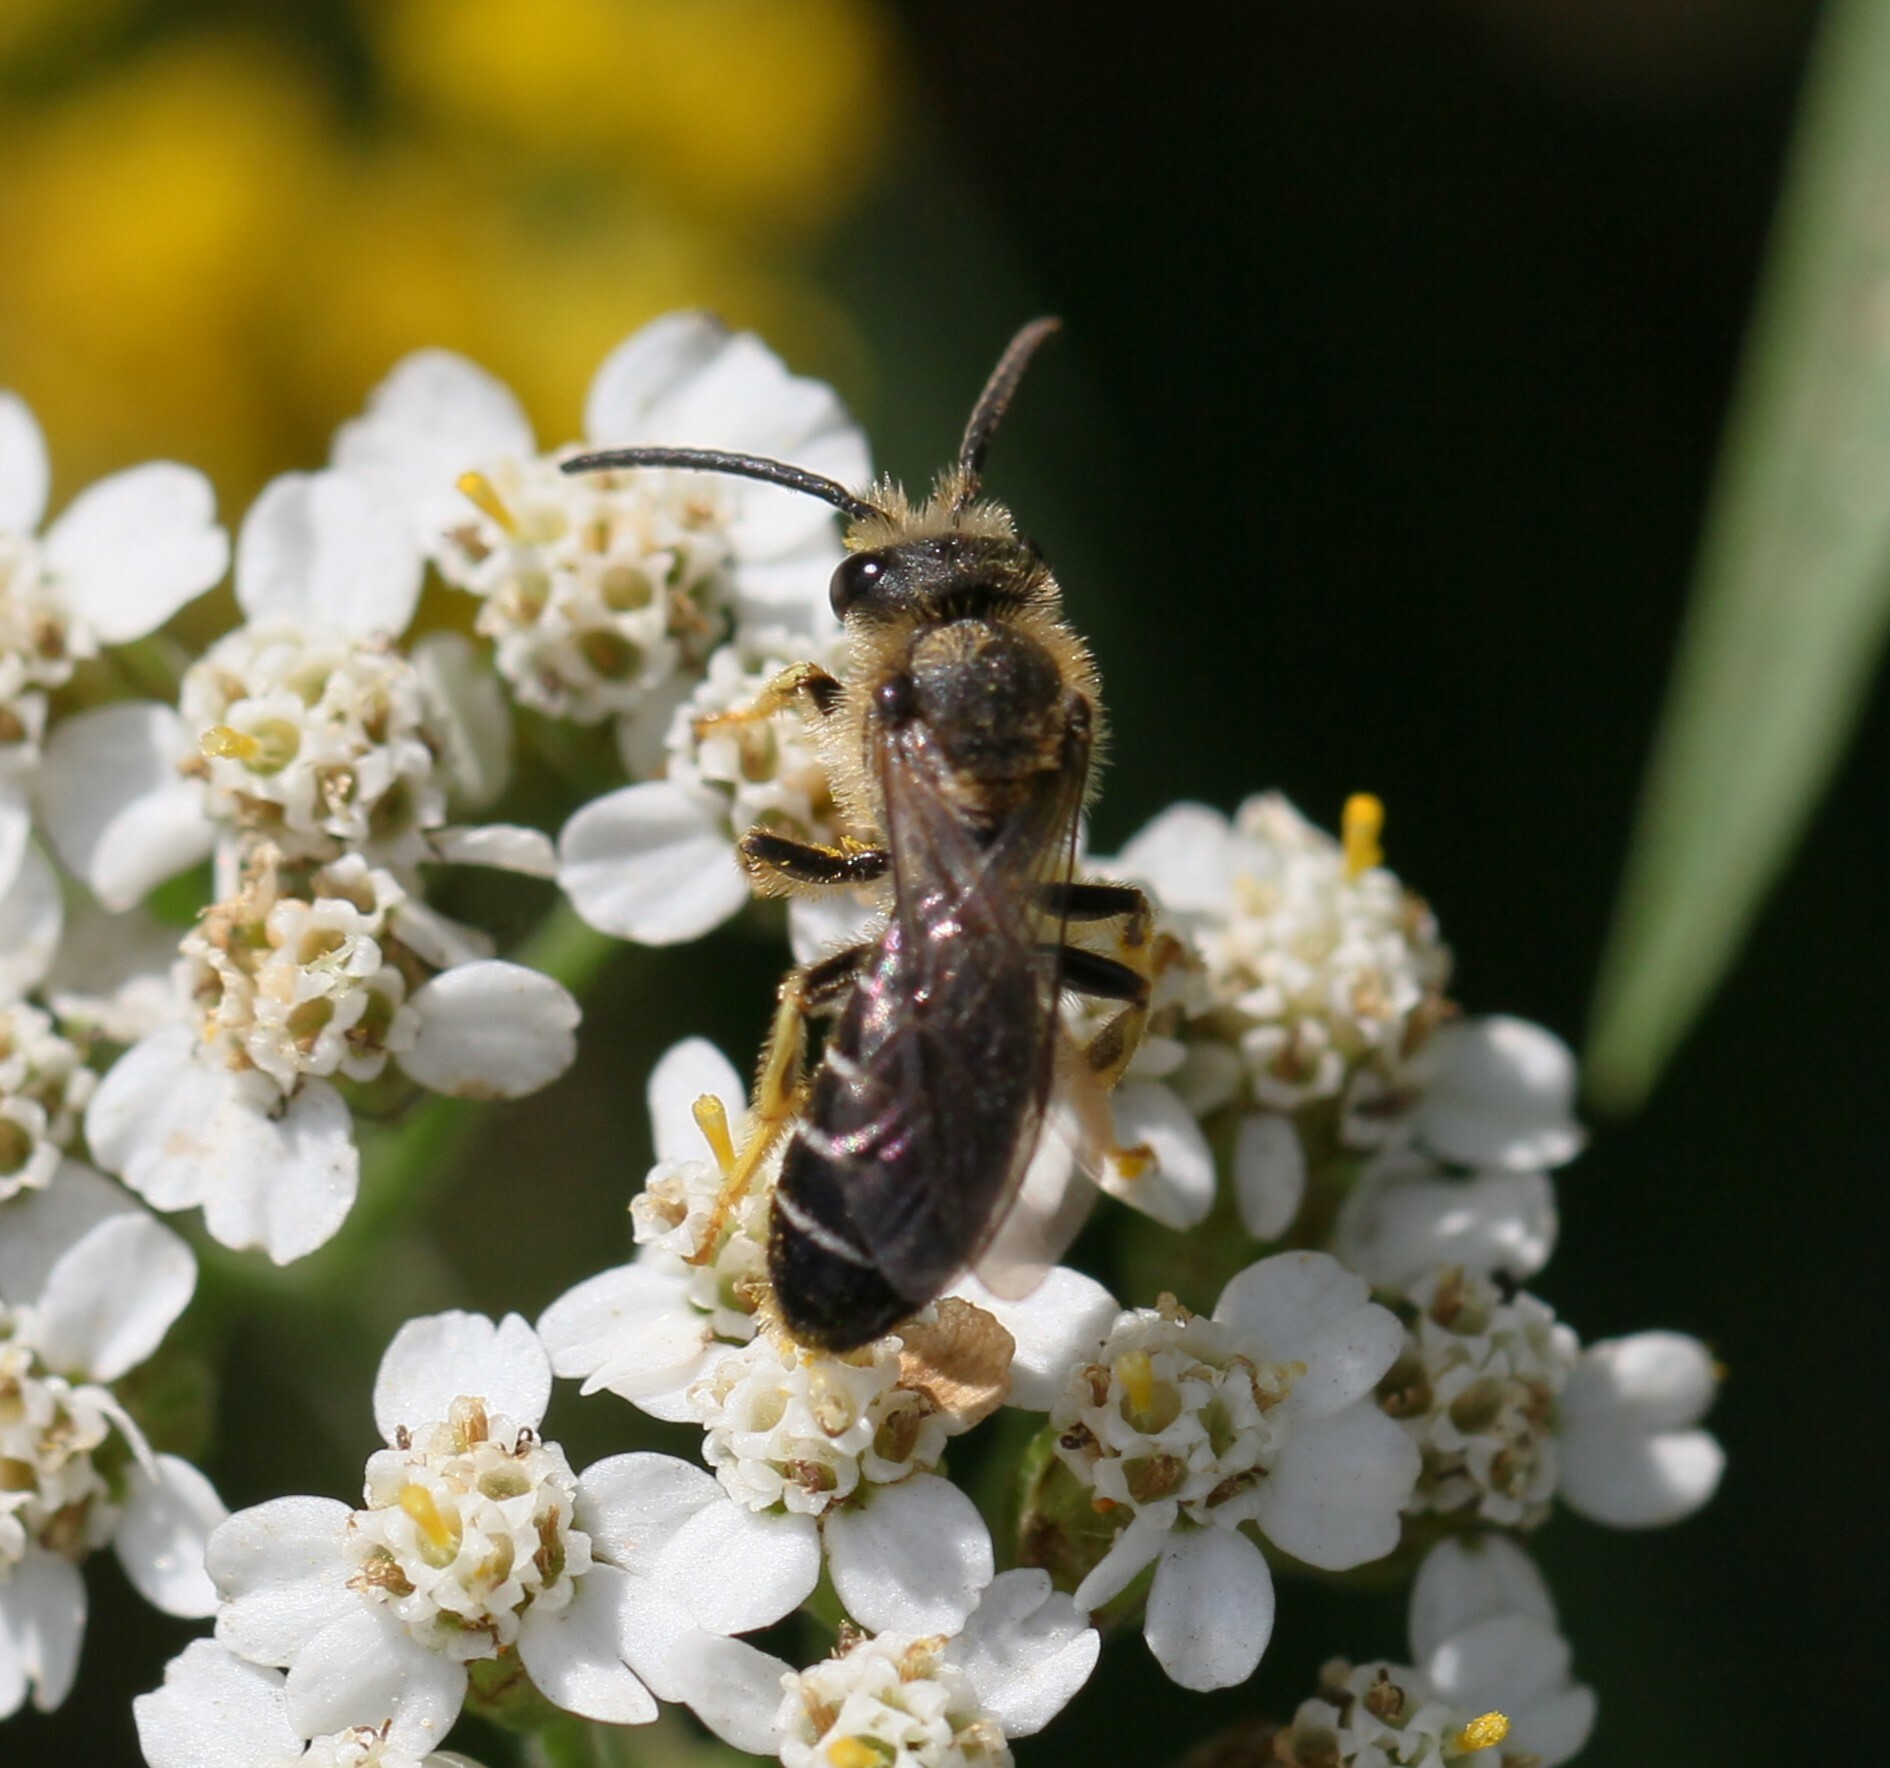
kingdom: Animalia
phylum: Arthropoda
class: Insecta
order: Hymenoptera
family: Halictidae
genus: Halictus
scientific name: Halictus rubicundus
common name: Orange-legged furrow bee
